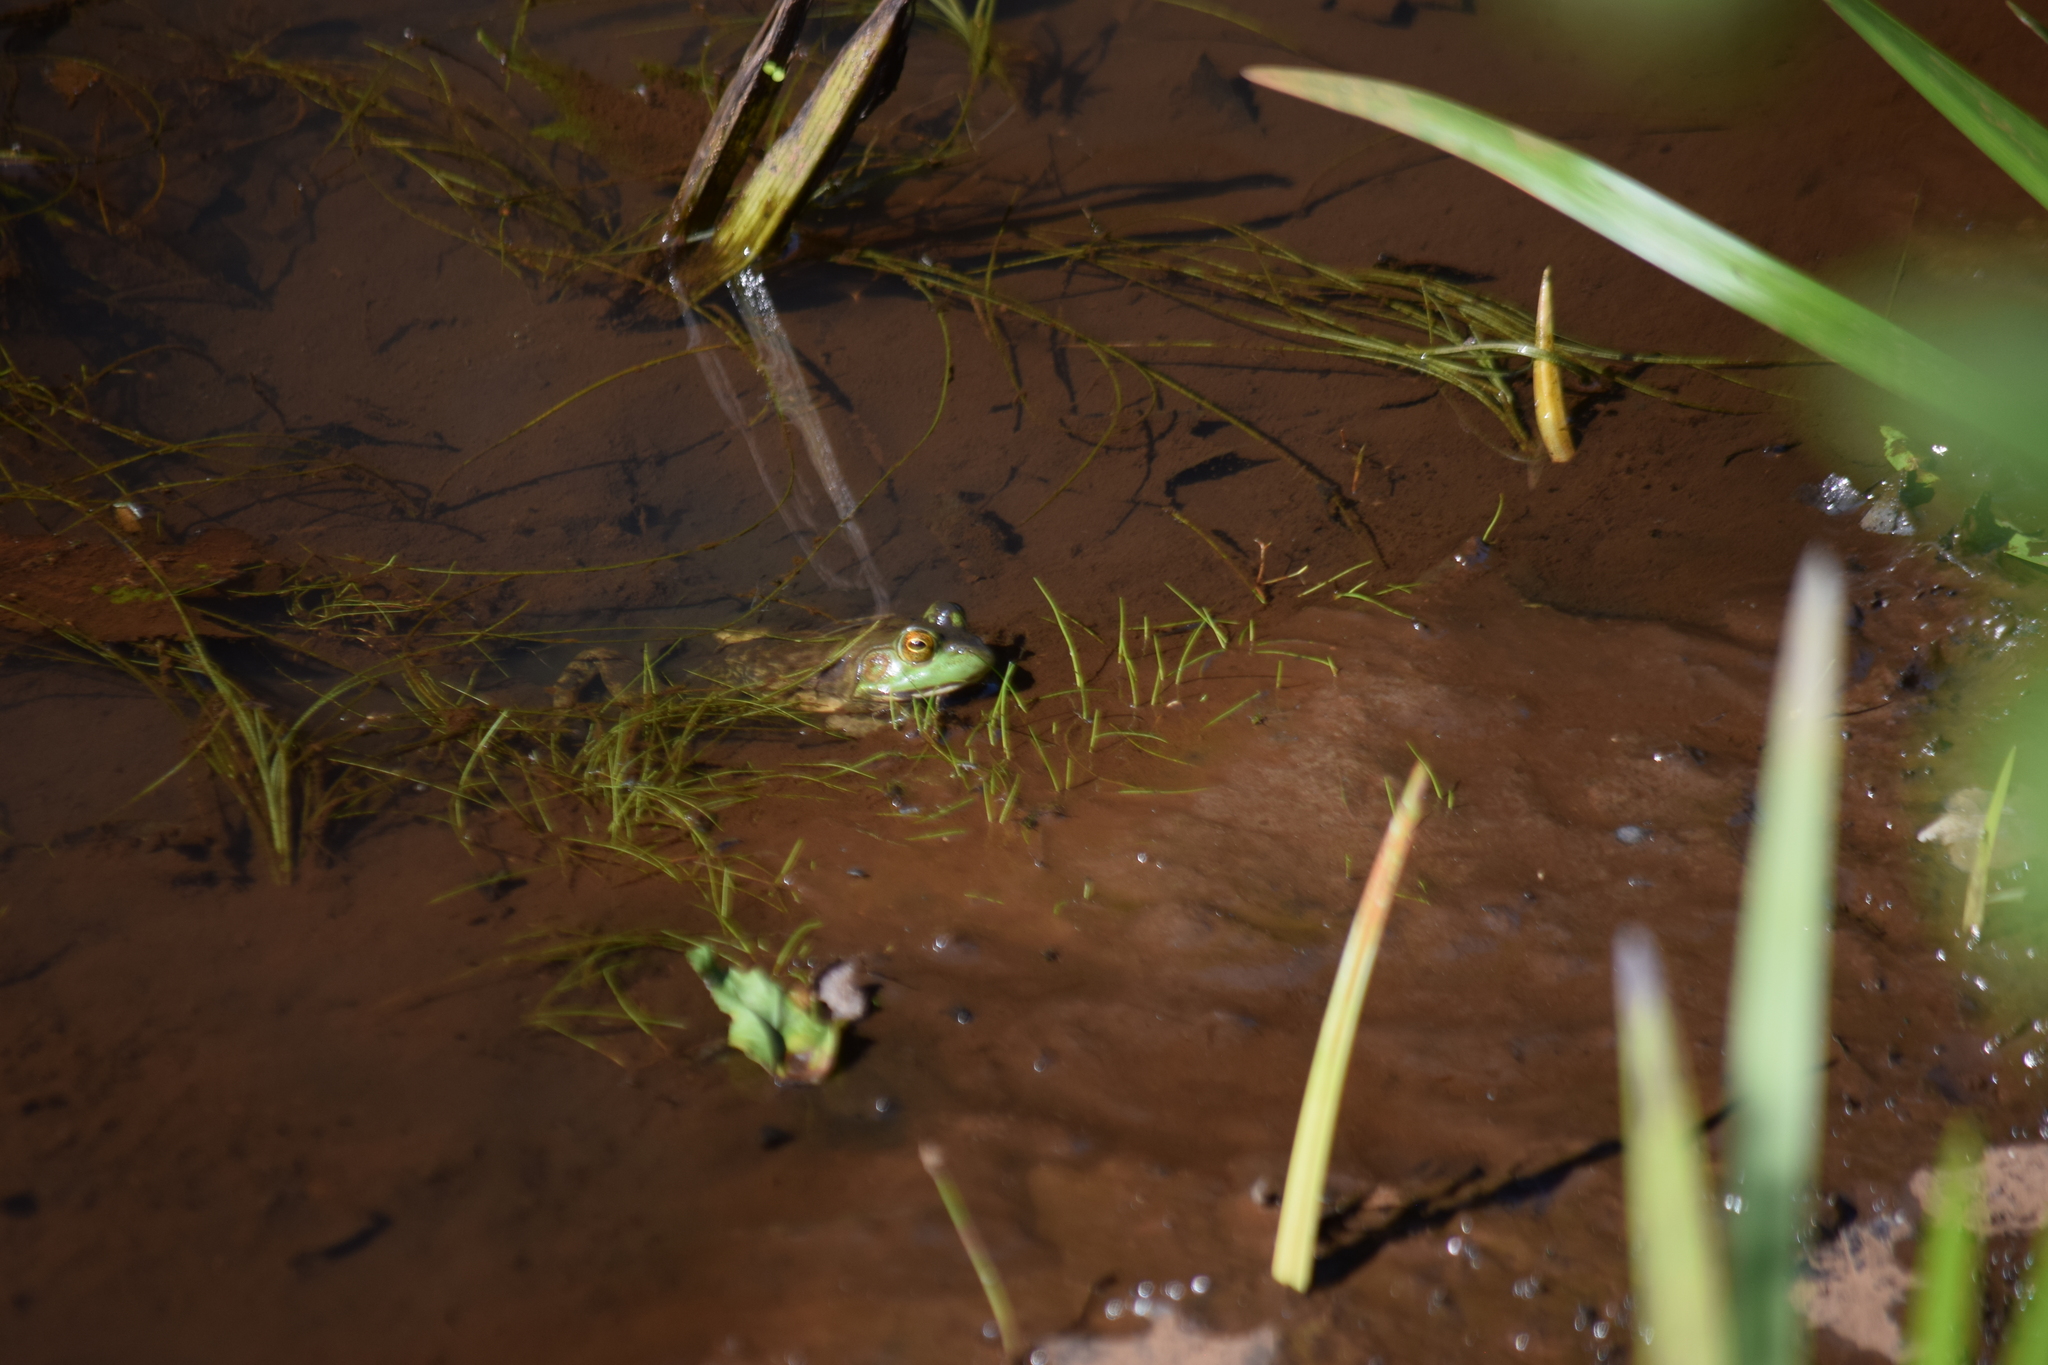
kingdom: Animalia
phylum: Chordata
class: Amphibia
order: Anura
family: Ranidae
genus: Lithobates
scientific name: Lithobates catesbeianus
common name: American bullfrog
